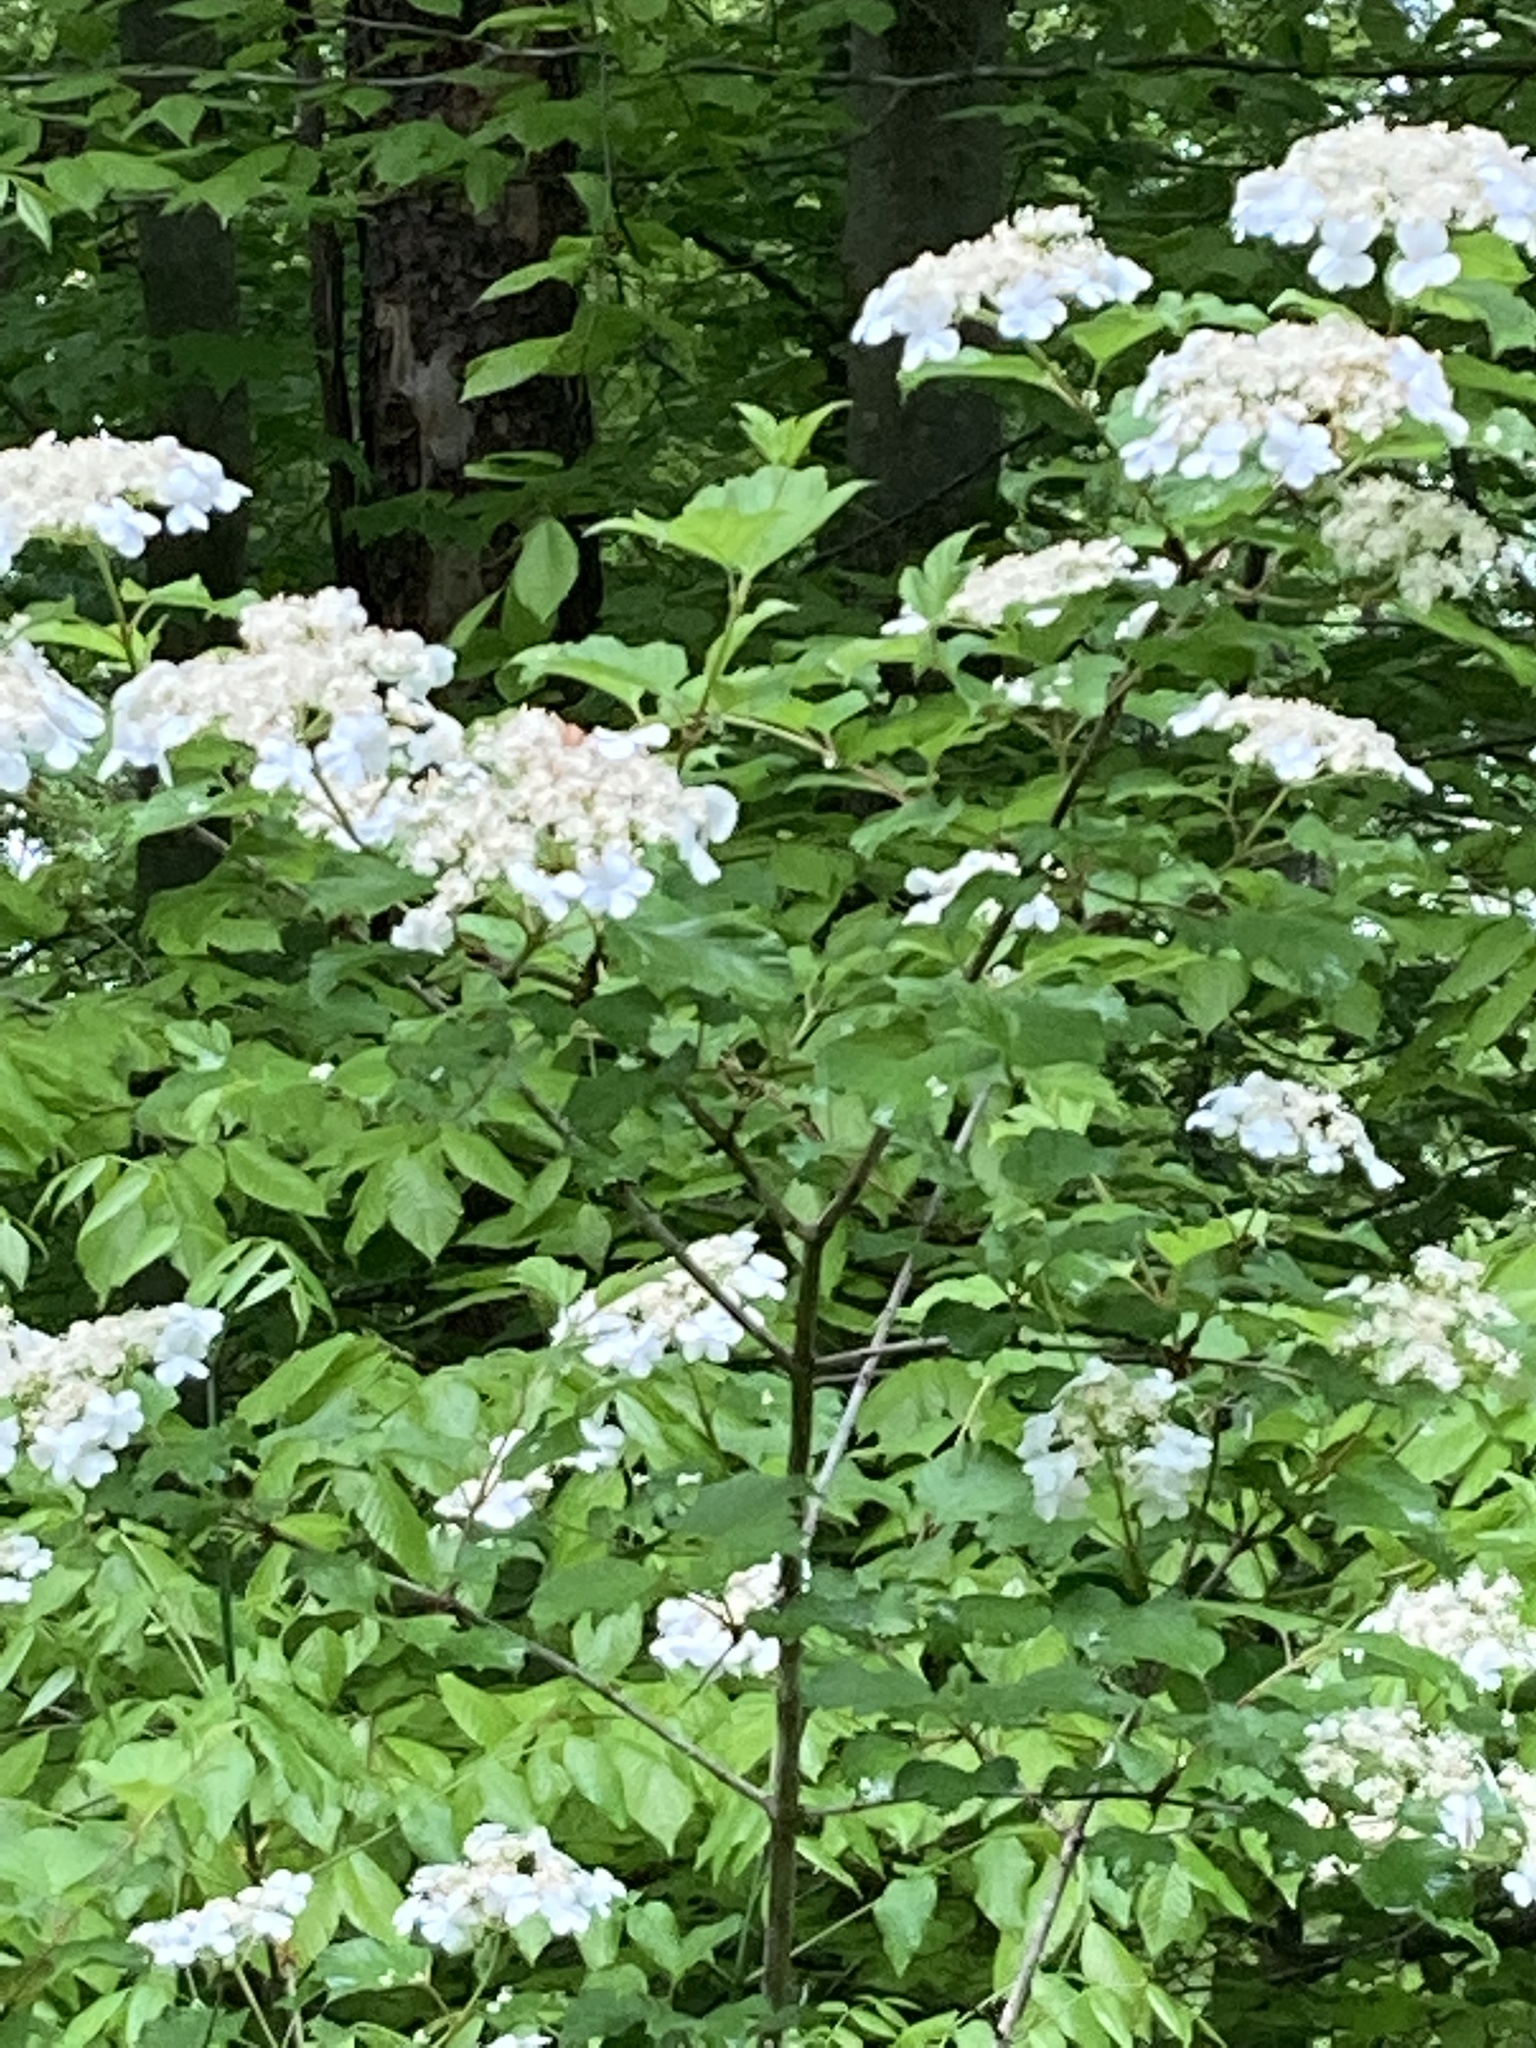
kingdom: Plantae
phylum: Tracheophyta
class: Magnoliopsida
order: Dipsacales
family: Viburnaceae
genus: Viburnum
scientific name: Viburnum opulus
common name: Guelder-rose
